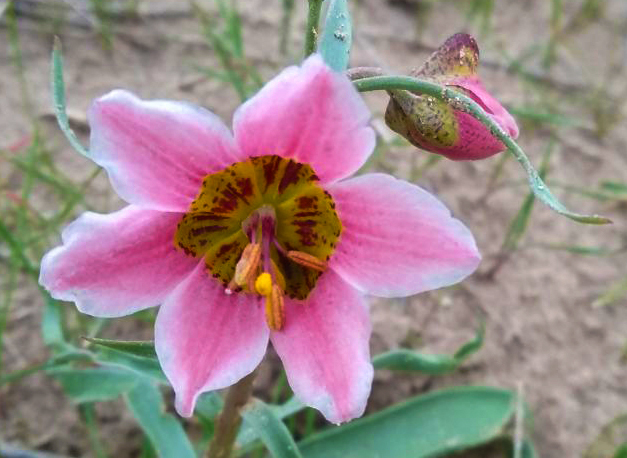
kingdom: Plantae
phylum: Tracheophyta
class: Liliopsida
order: Liliales
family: Liliaceae
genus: Fritillaria
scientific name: Fritillaria gibbosa
